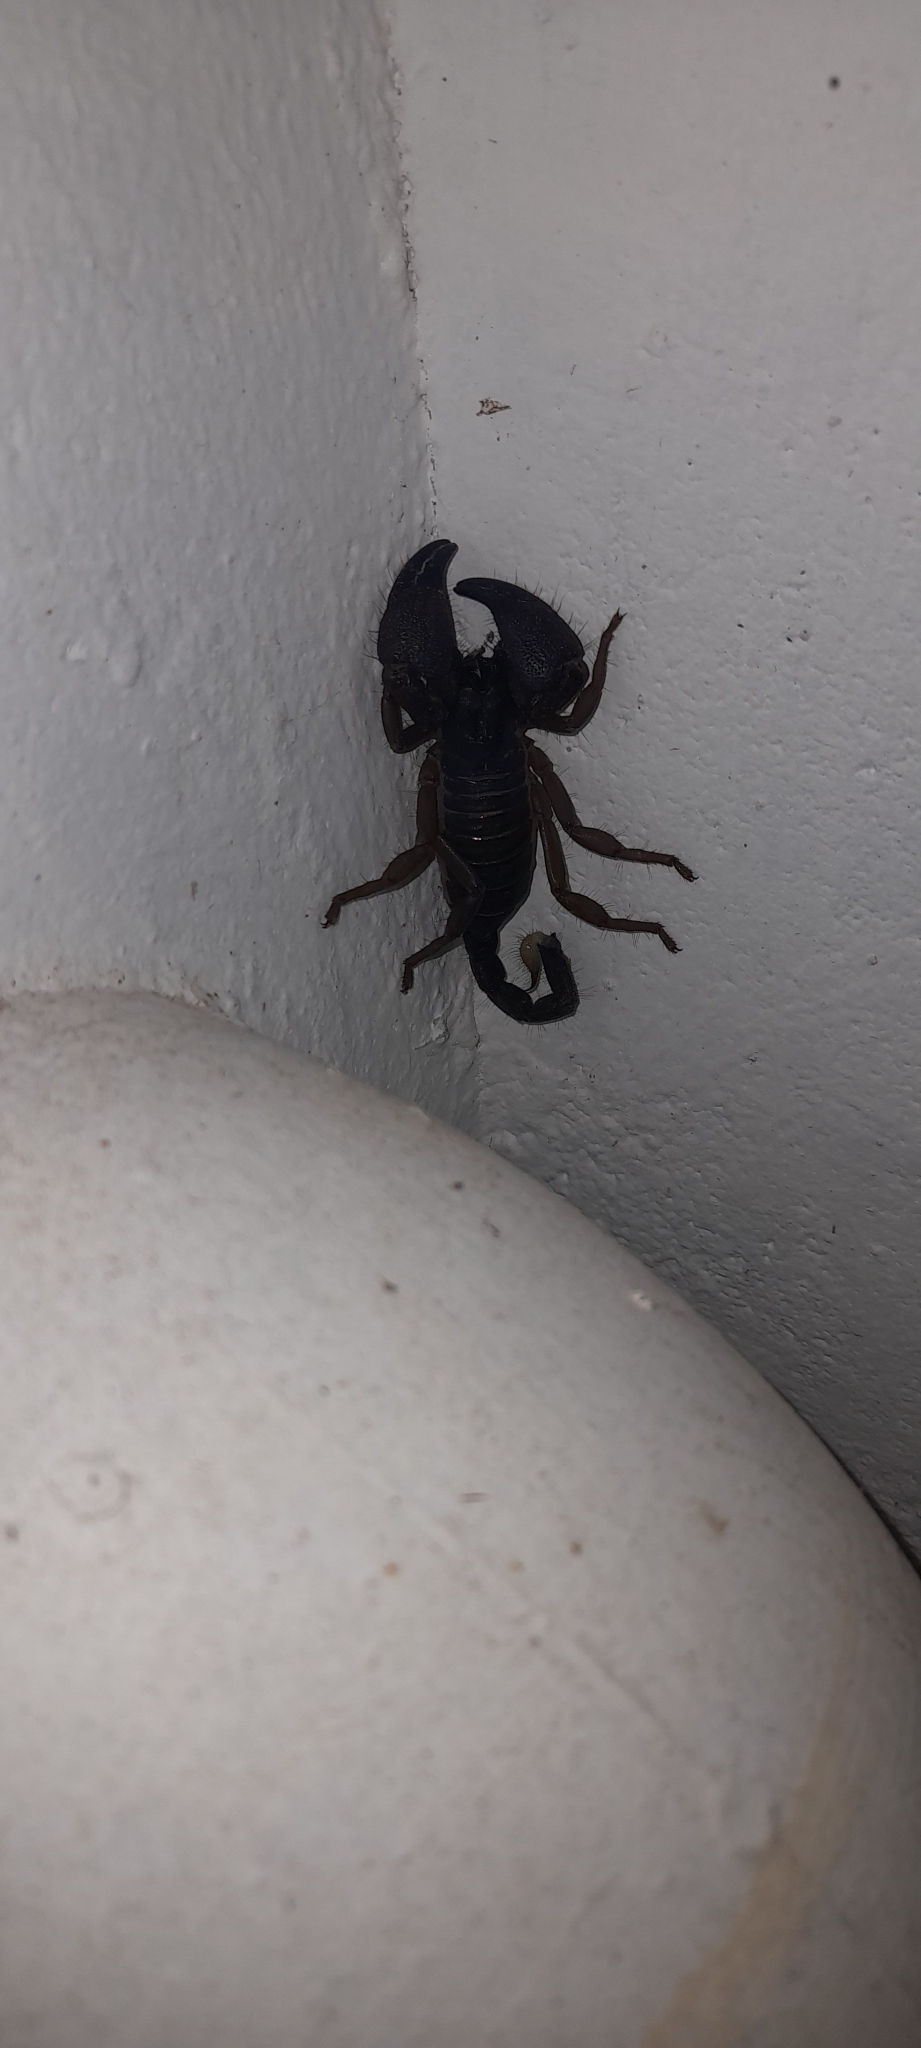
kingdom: Animalia
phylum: Arthropoda
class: Arachnida
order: Scorpiones
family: Scorpionidae
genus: Gigantometrus
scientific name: Gigantometrus swammerdami
